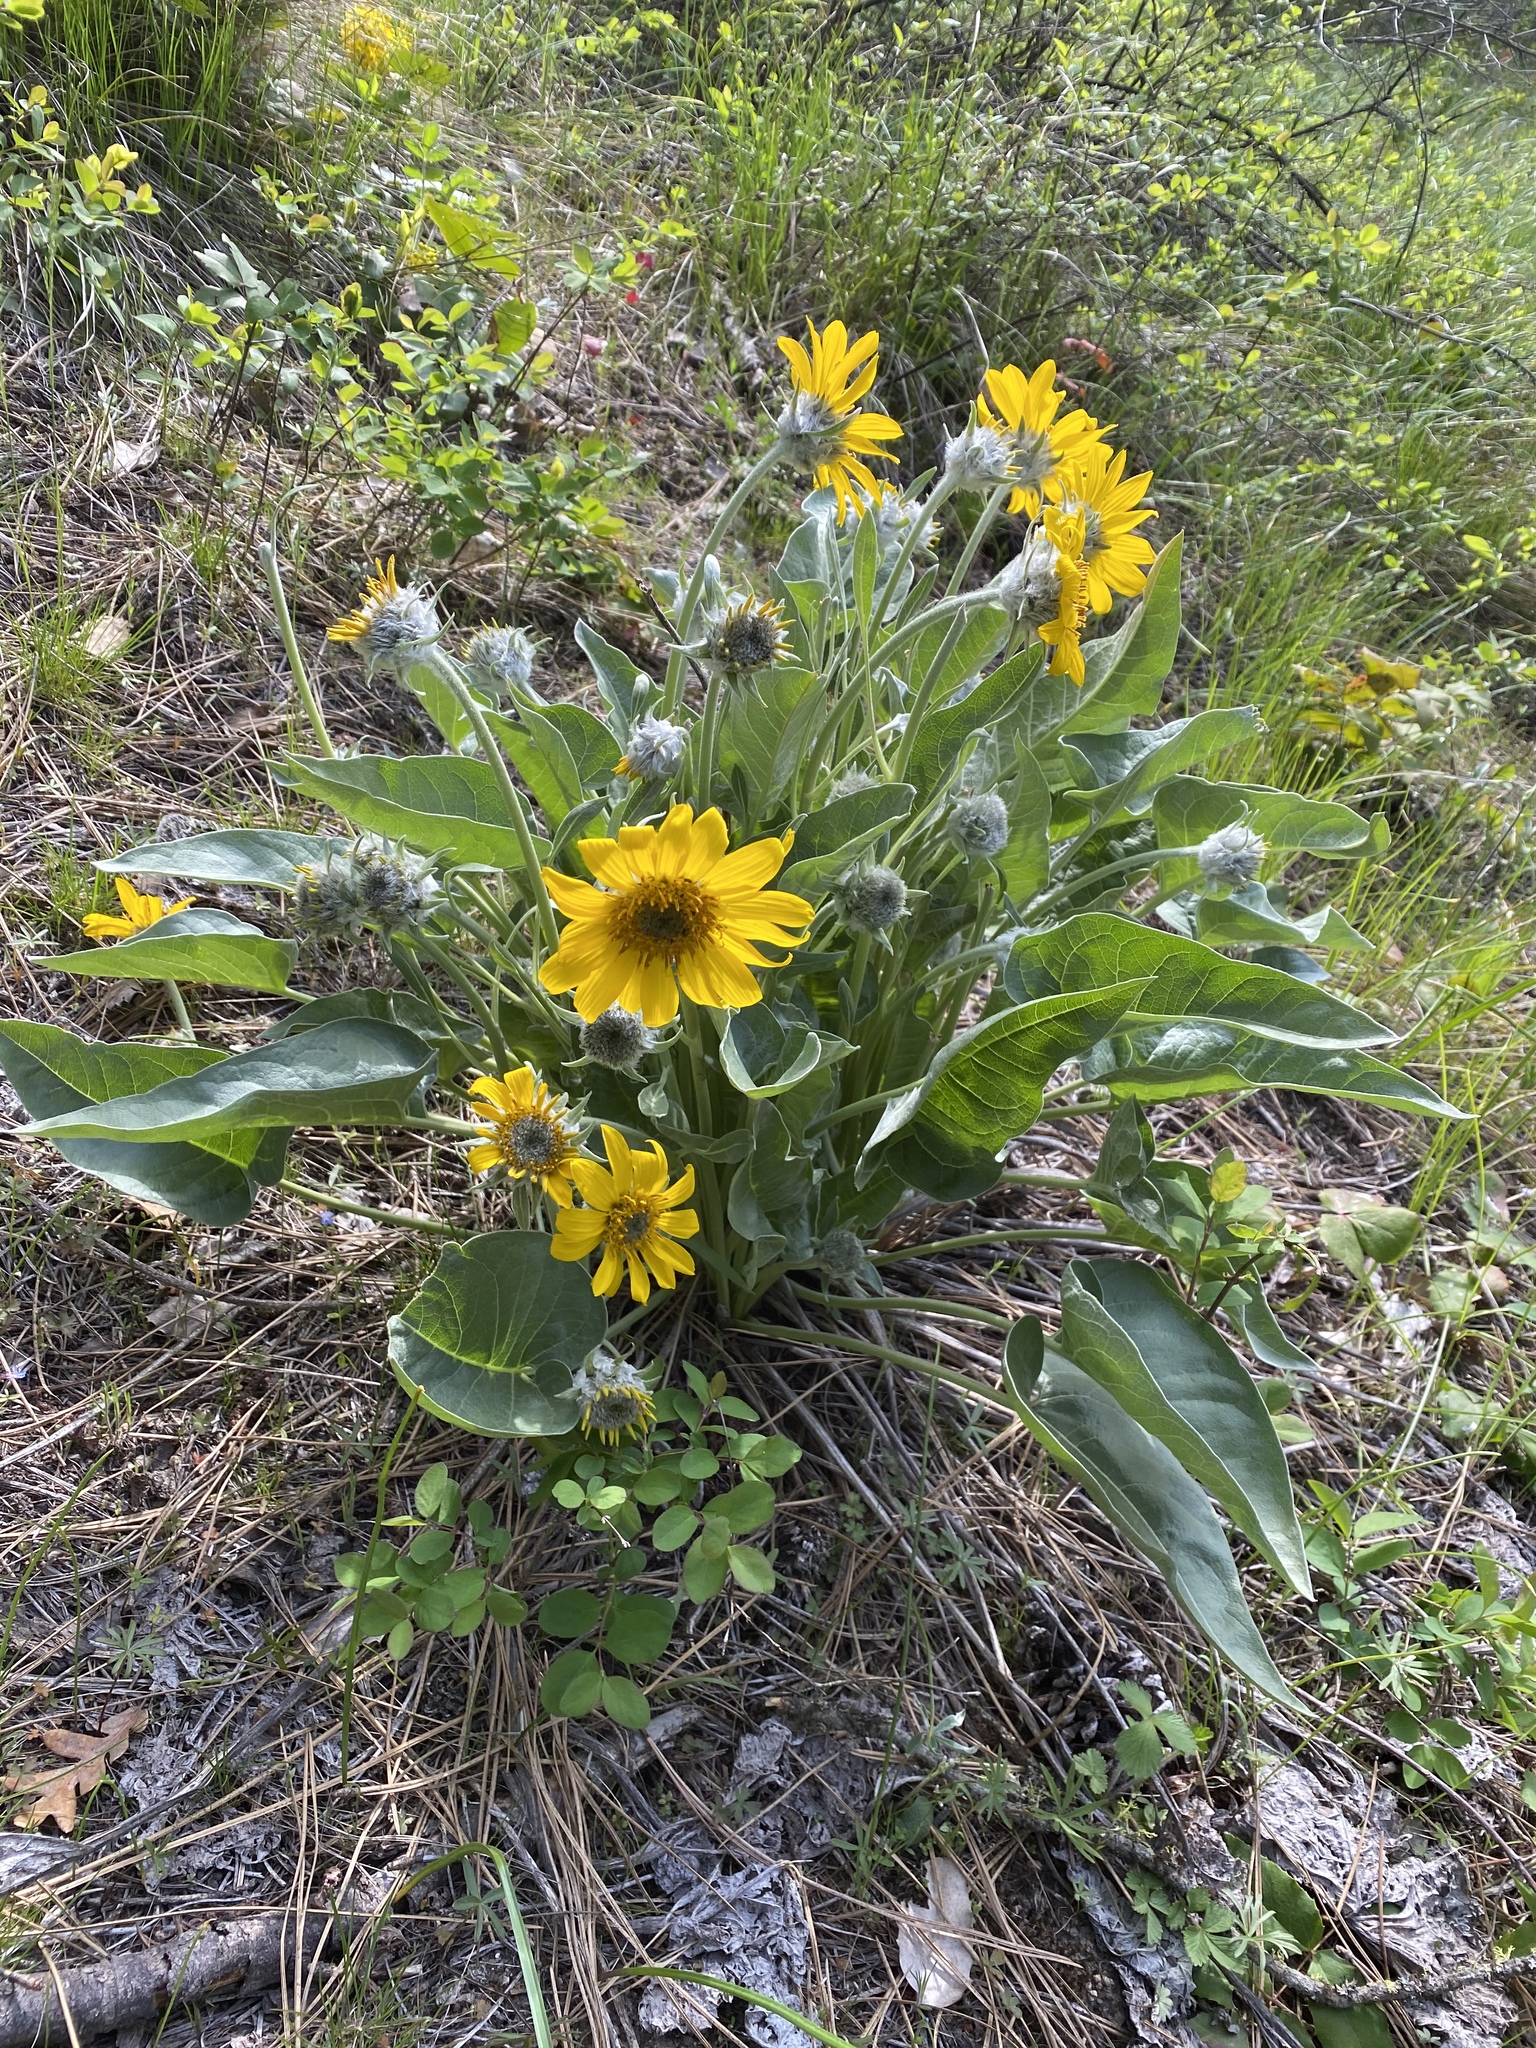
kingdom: Plantae
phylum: Tracheophyta
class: Magnoliopsida
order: Asterales
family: Asteraceae
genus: Wyethia
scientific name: Wyethia sagittata
